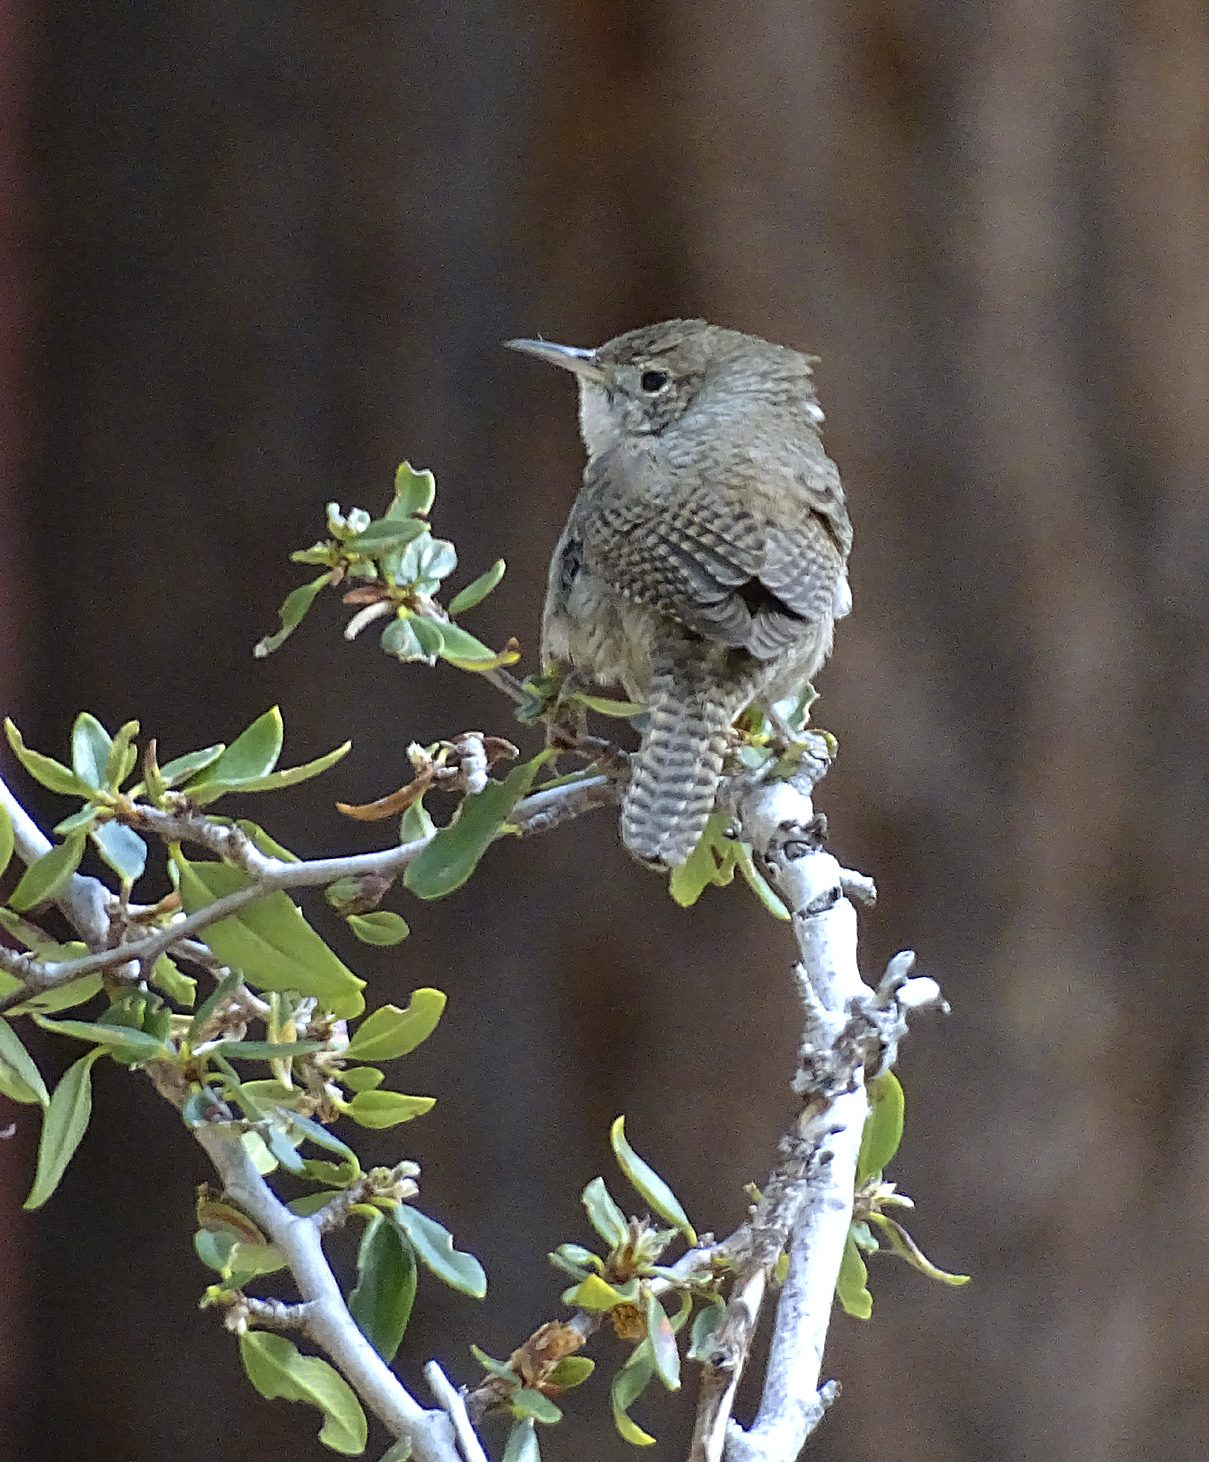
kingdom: Animalia
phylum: Chordata
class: Aves
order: Passeriformes
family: Troglodytidae
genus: Troglodytes
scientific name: Troglodytes aedon
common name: House wren
